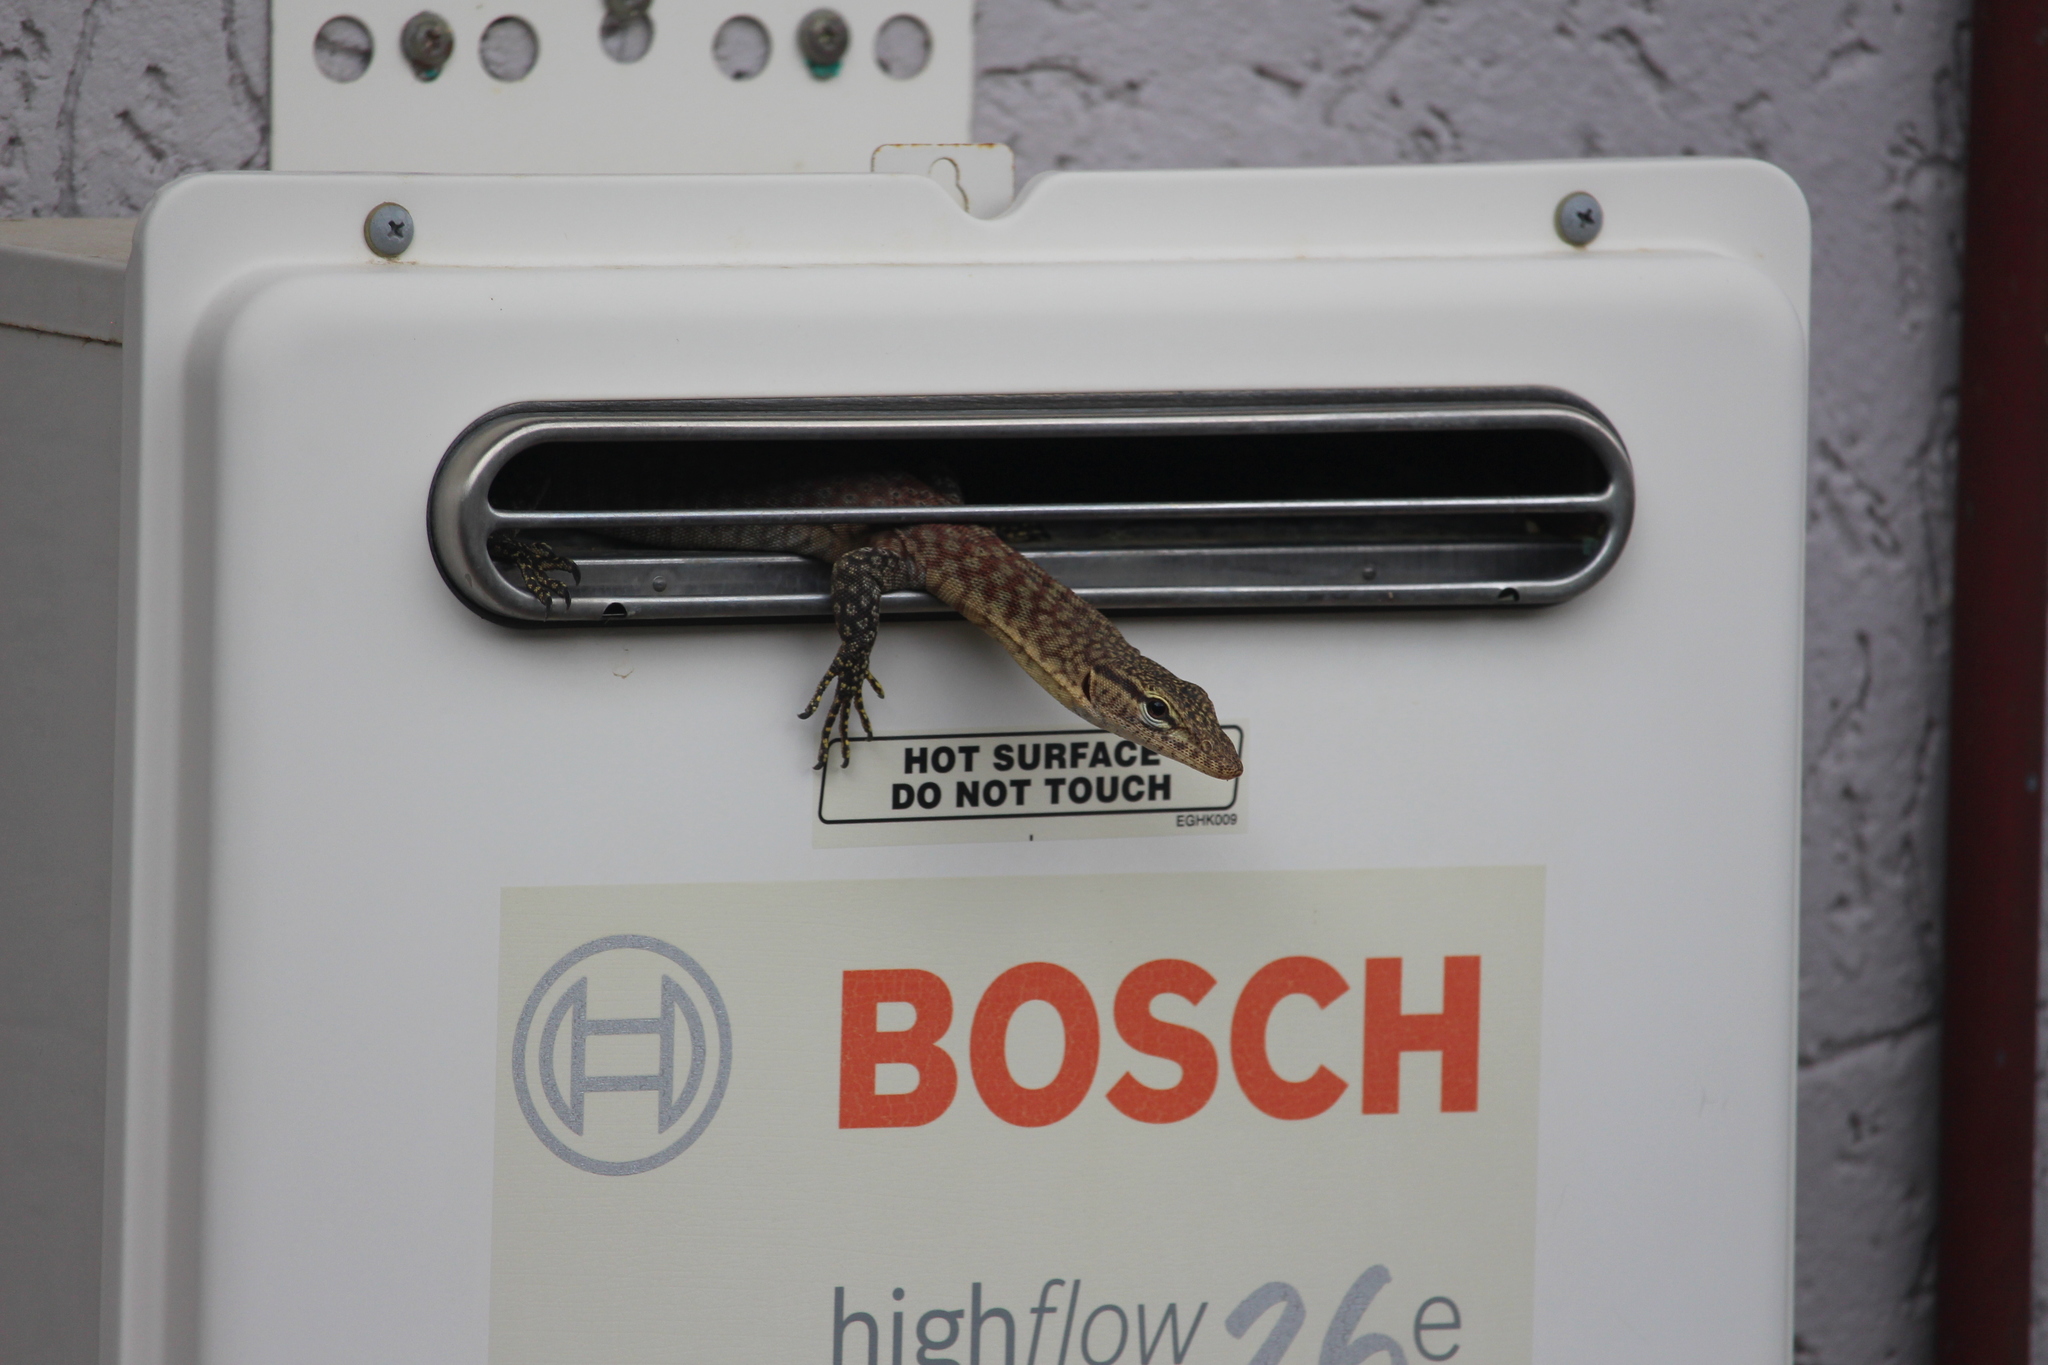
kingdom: Animalia
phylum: Chordata
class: Squamata
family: Varanidae
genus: Varanus
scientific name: Varanus tristis
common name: Arid monitor
